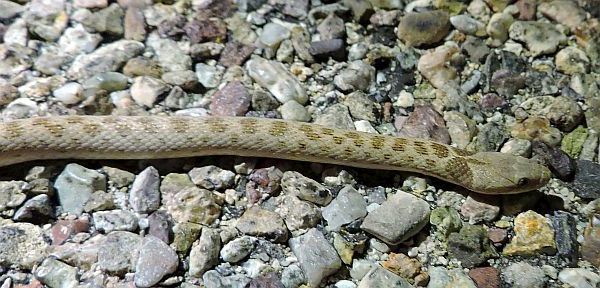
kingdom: Animalia
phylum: Chordata
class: Squamata
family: Colubridae
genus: Hypsiglena
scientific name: Hypsiglena chlorophaea
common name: Desert nightsnake
